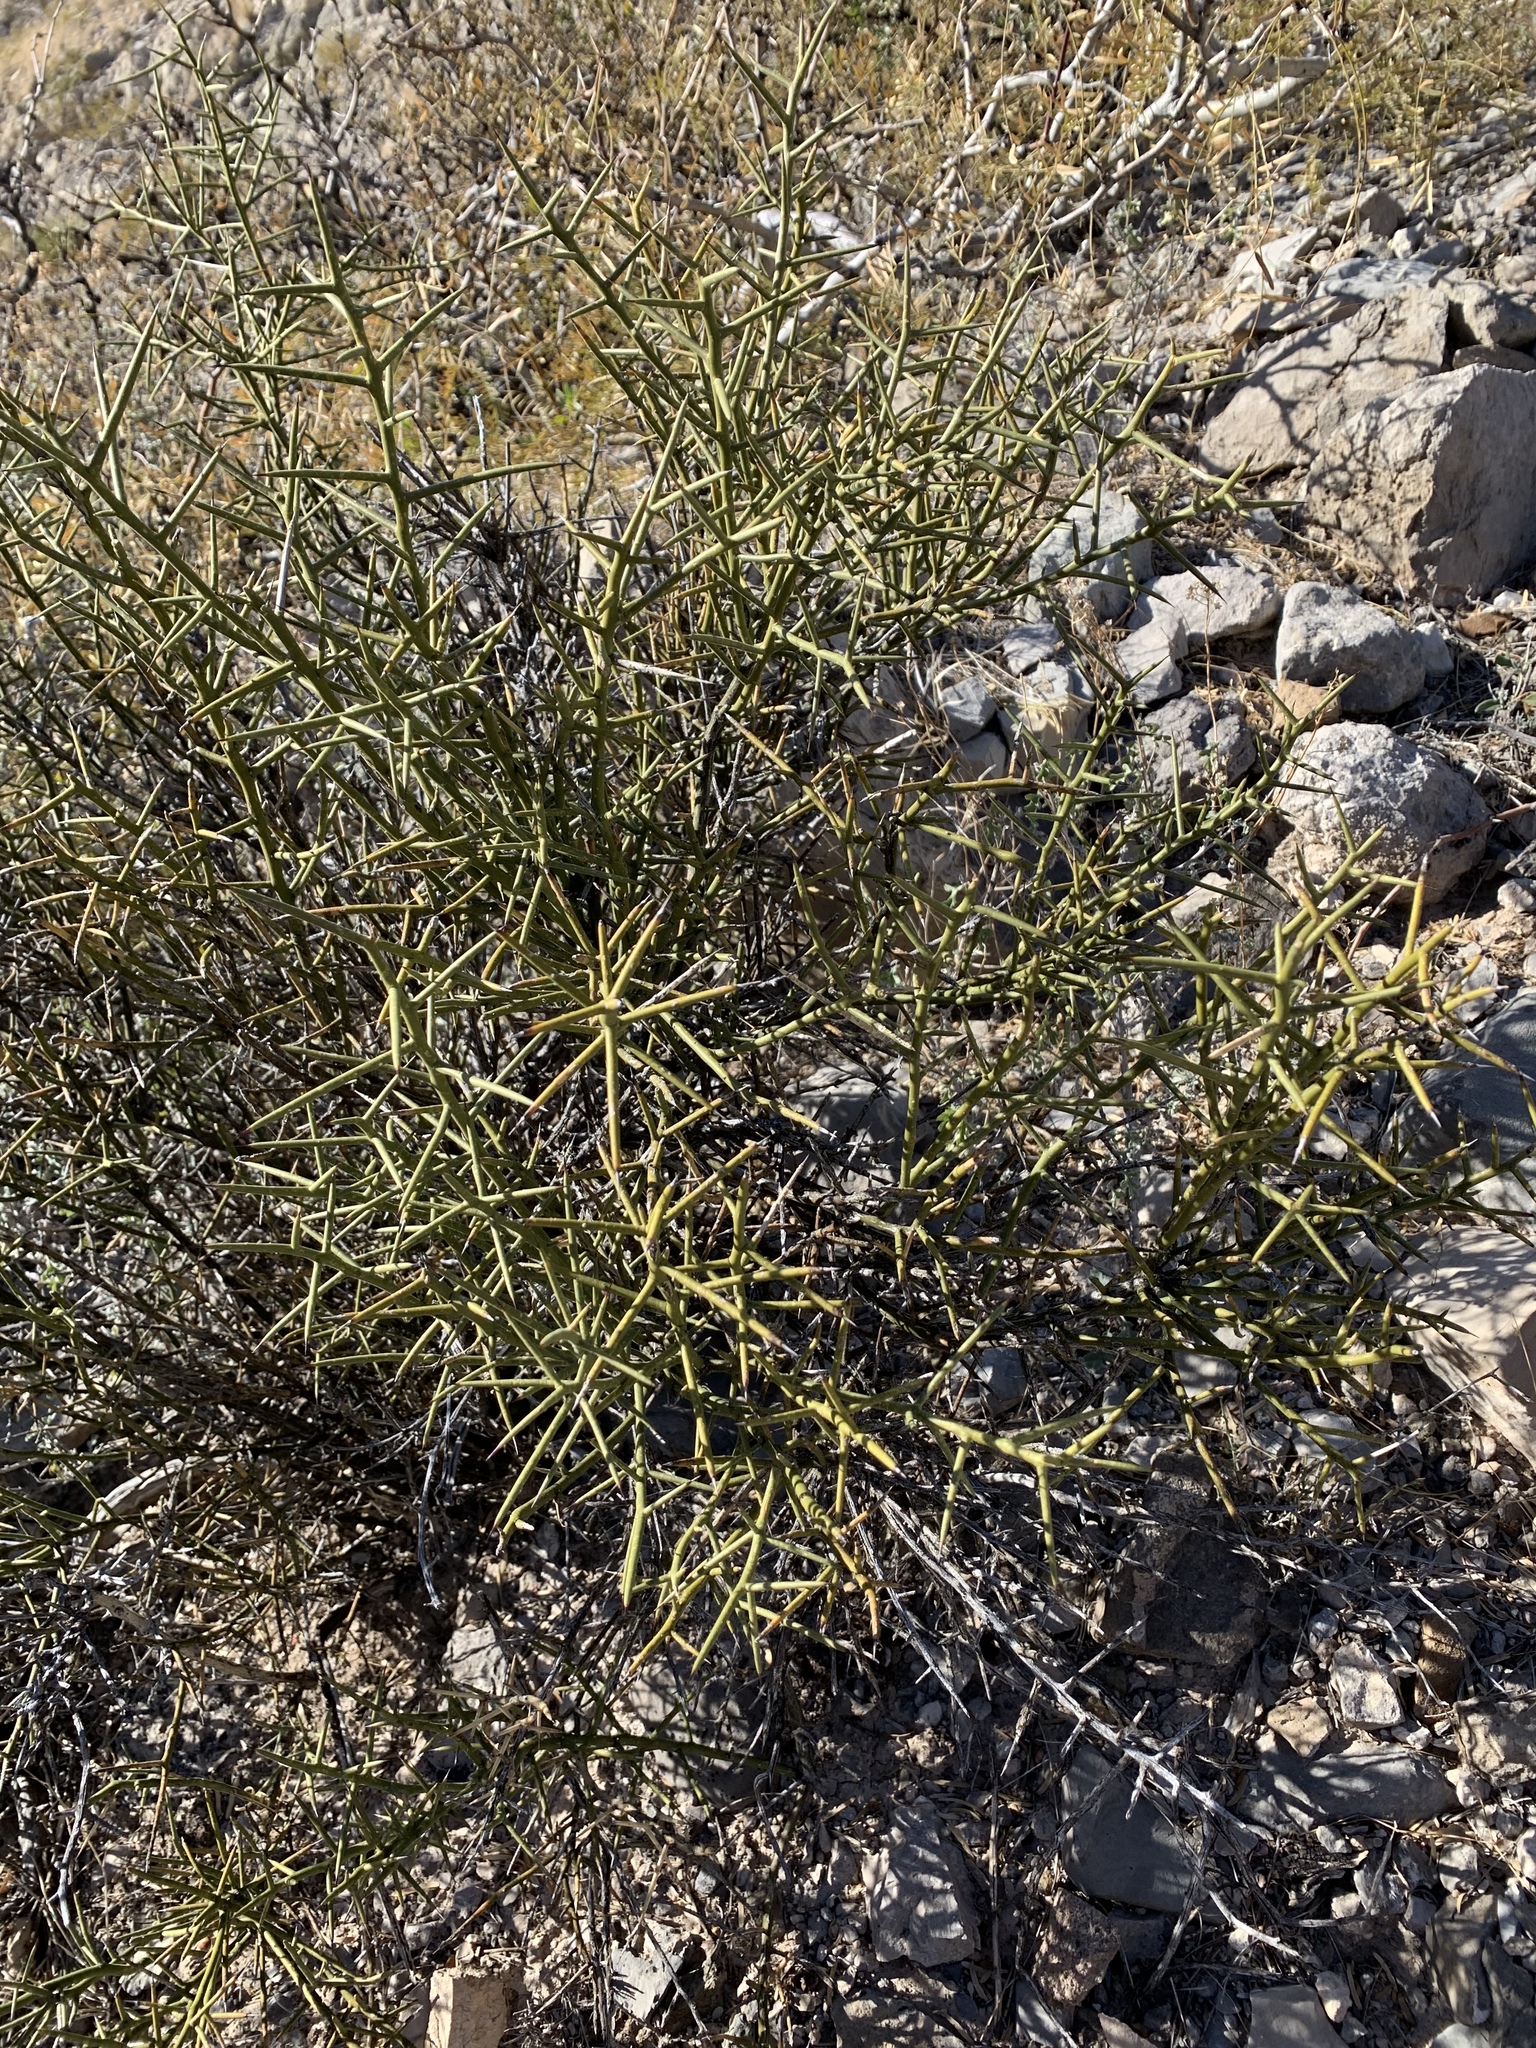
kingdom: Plantae
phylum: Tracheophyta
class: Magnoliopsida
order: Brassicales
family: Koeberliniaceae
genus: Koeberlinia
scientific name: Koeberlinia spinosa
